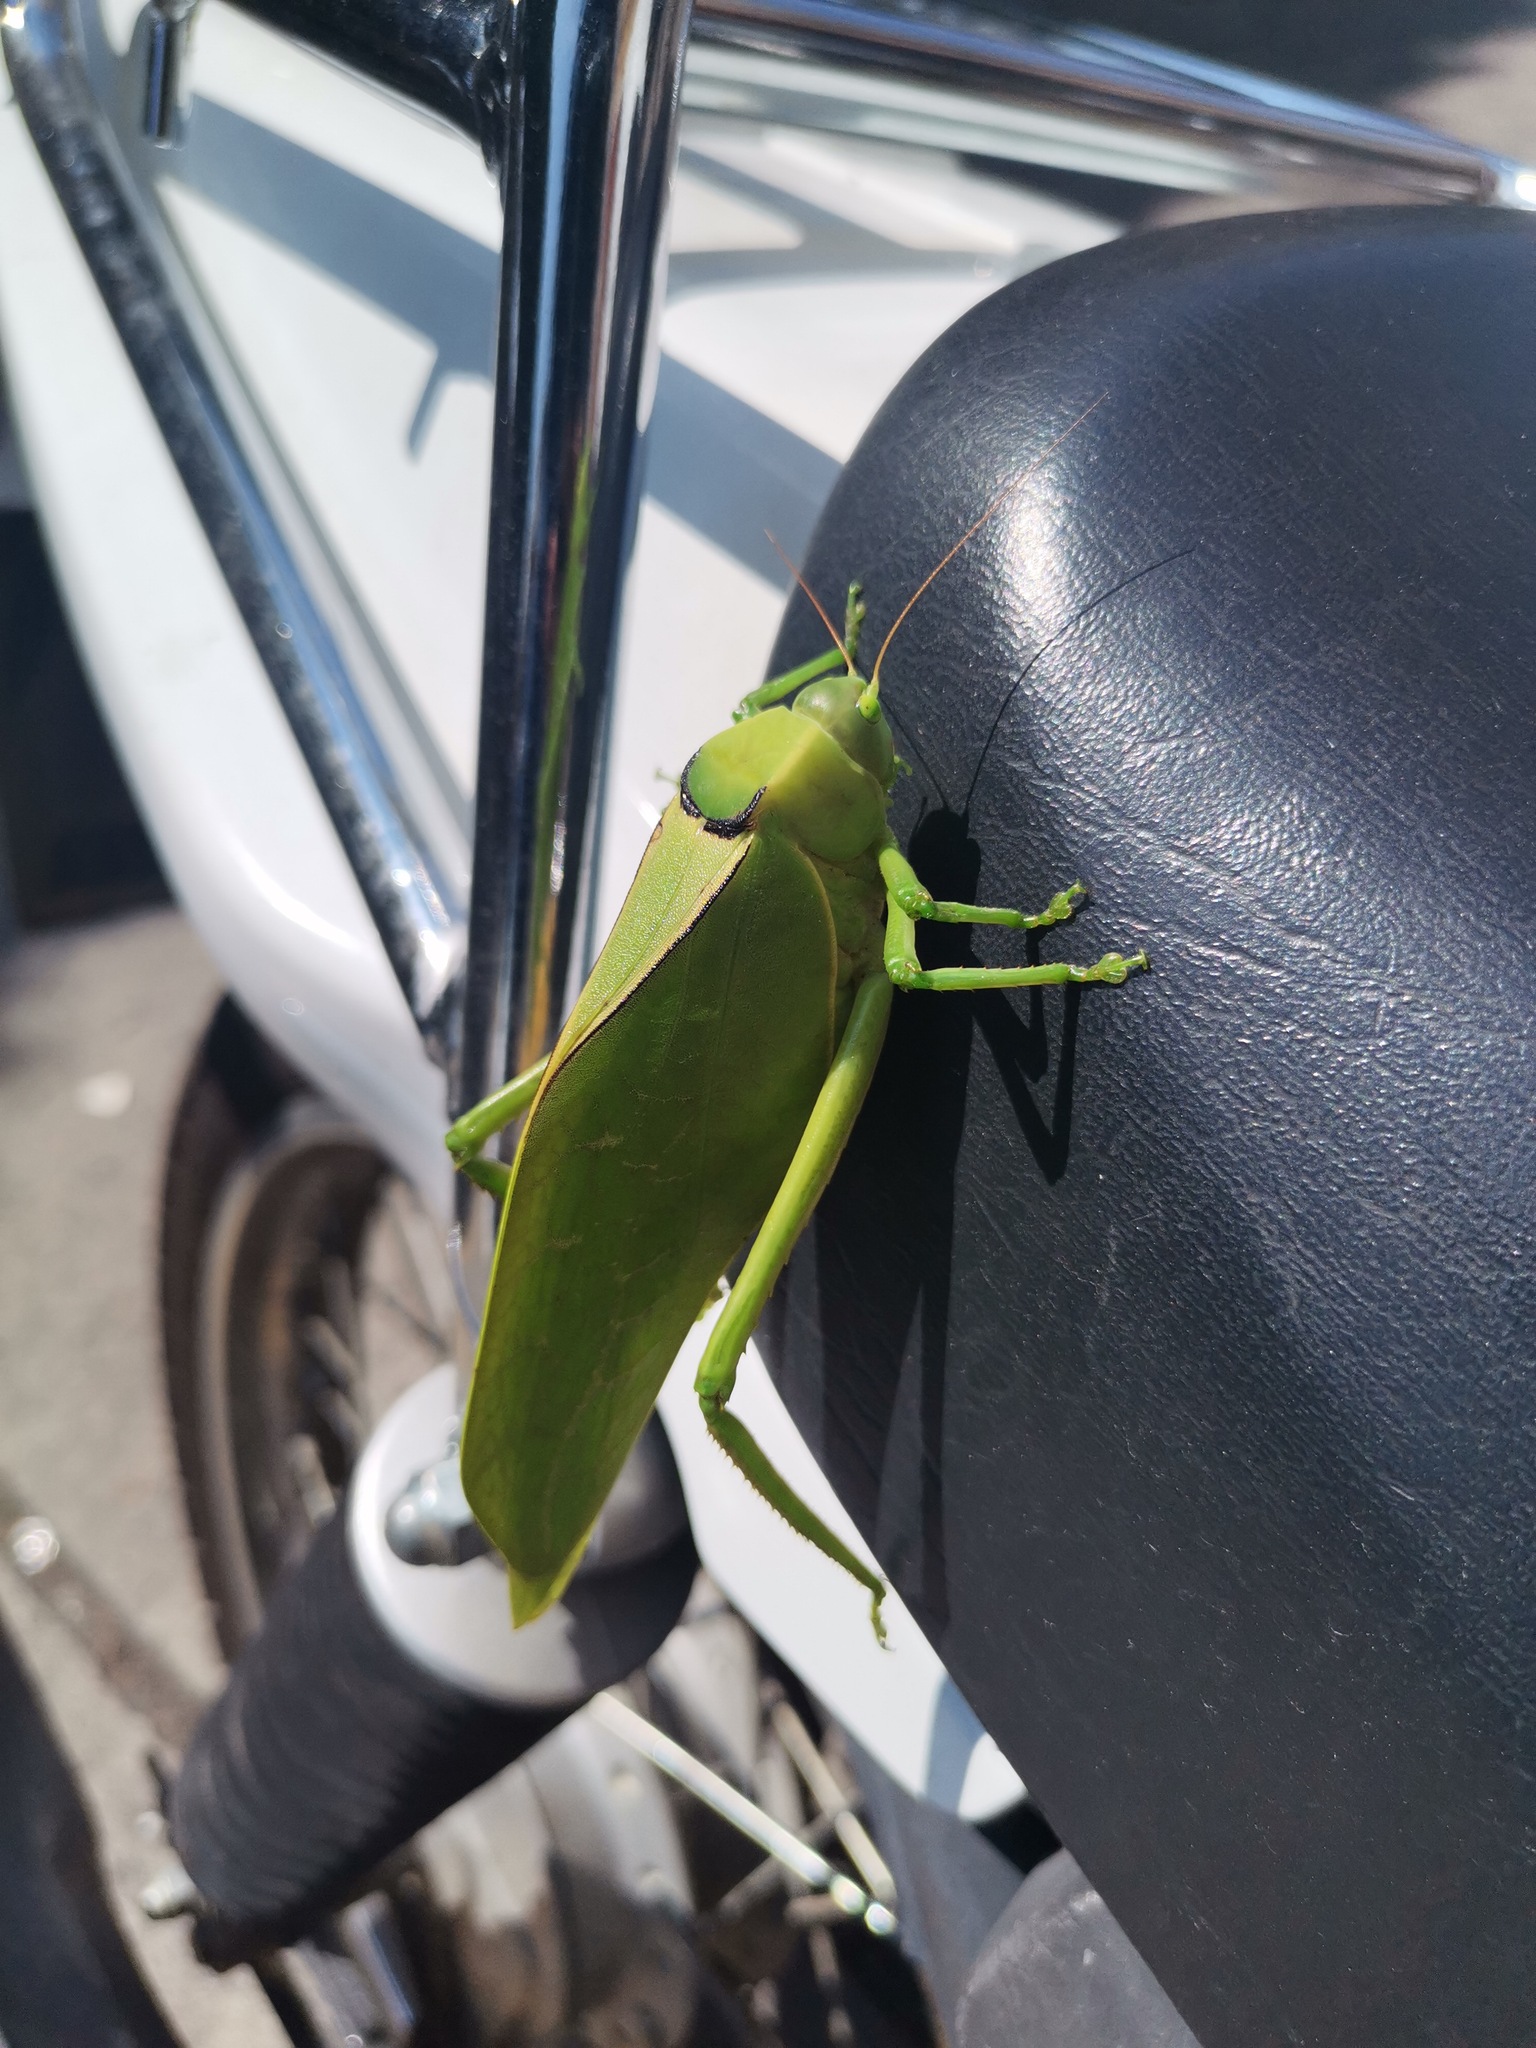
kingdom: Animalia
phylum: Arthropoda
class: Insecta
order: Orthoptera
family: Tettigoniidae
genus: Stilpnochlora
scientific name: Stilpnochlora azteca
